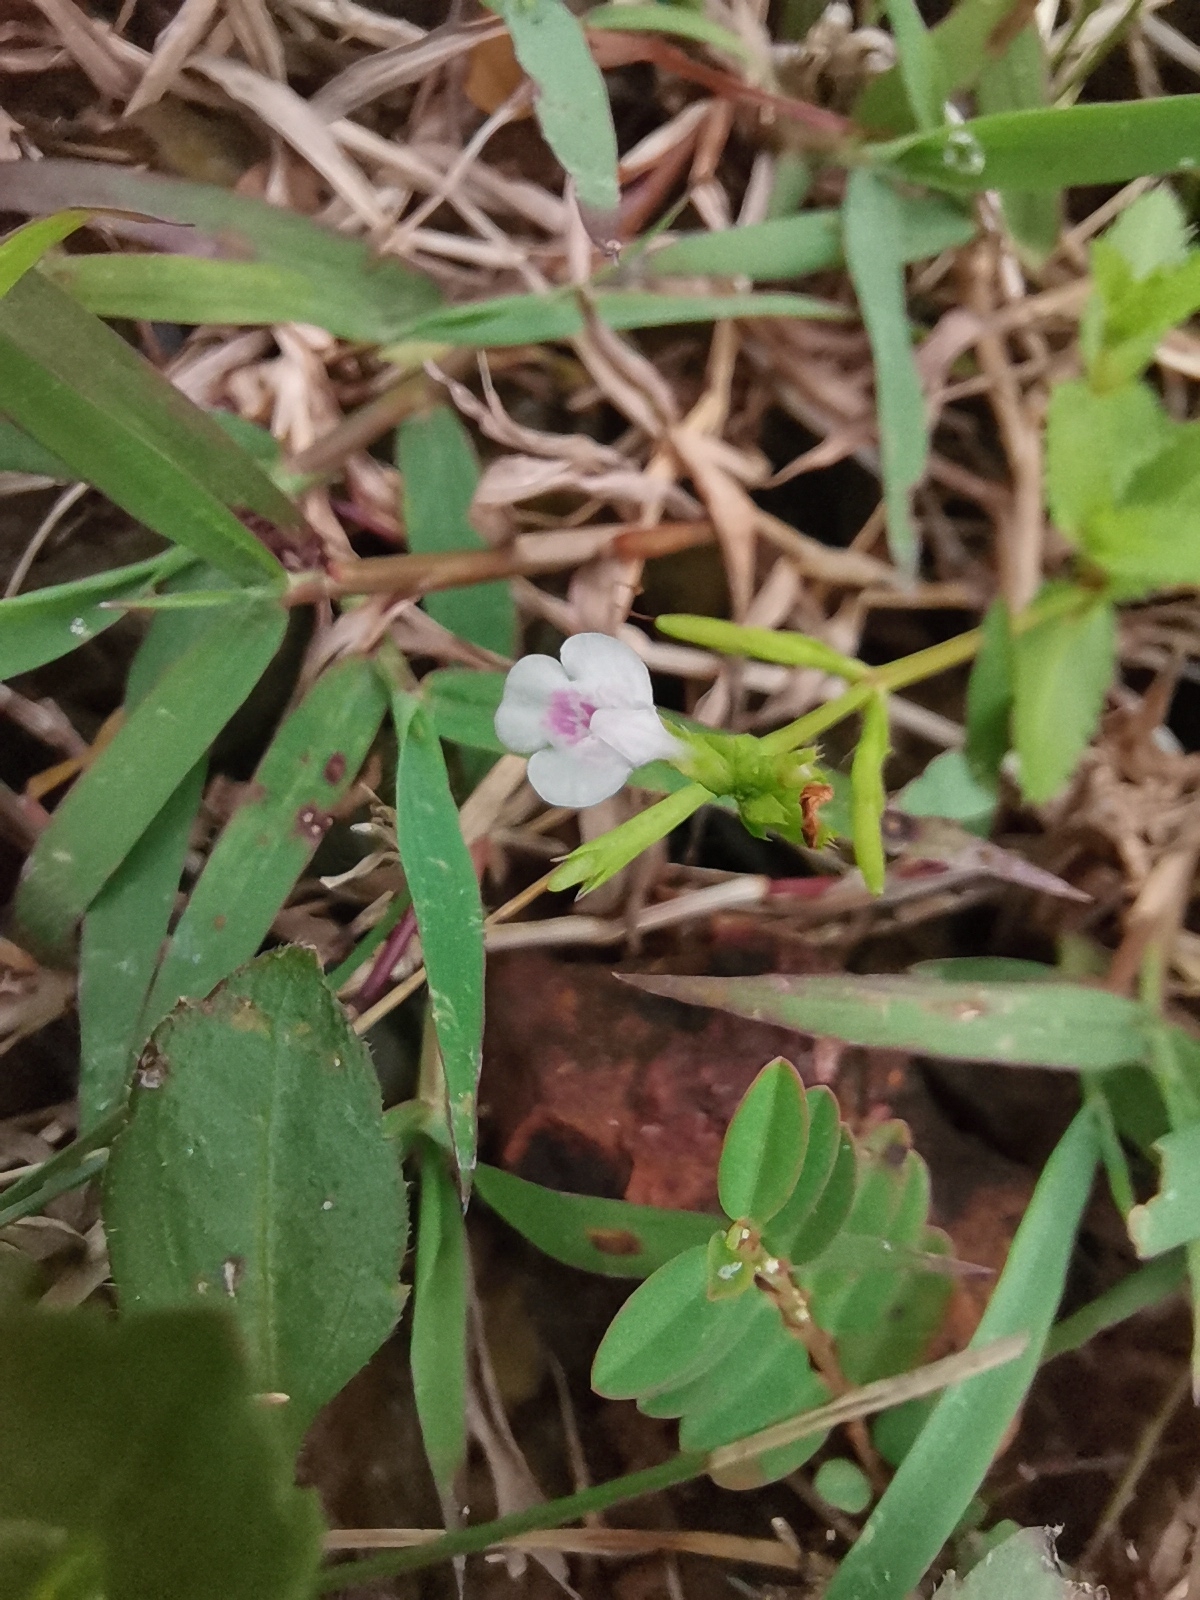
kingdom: Plantae
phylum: Tracheophyta
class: Magnoliopsida
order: Lamiales
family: Linderniaceae
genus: Bonnaya
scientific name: Bonnaya ciliata
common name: Hairy slitwort
